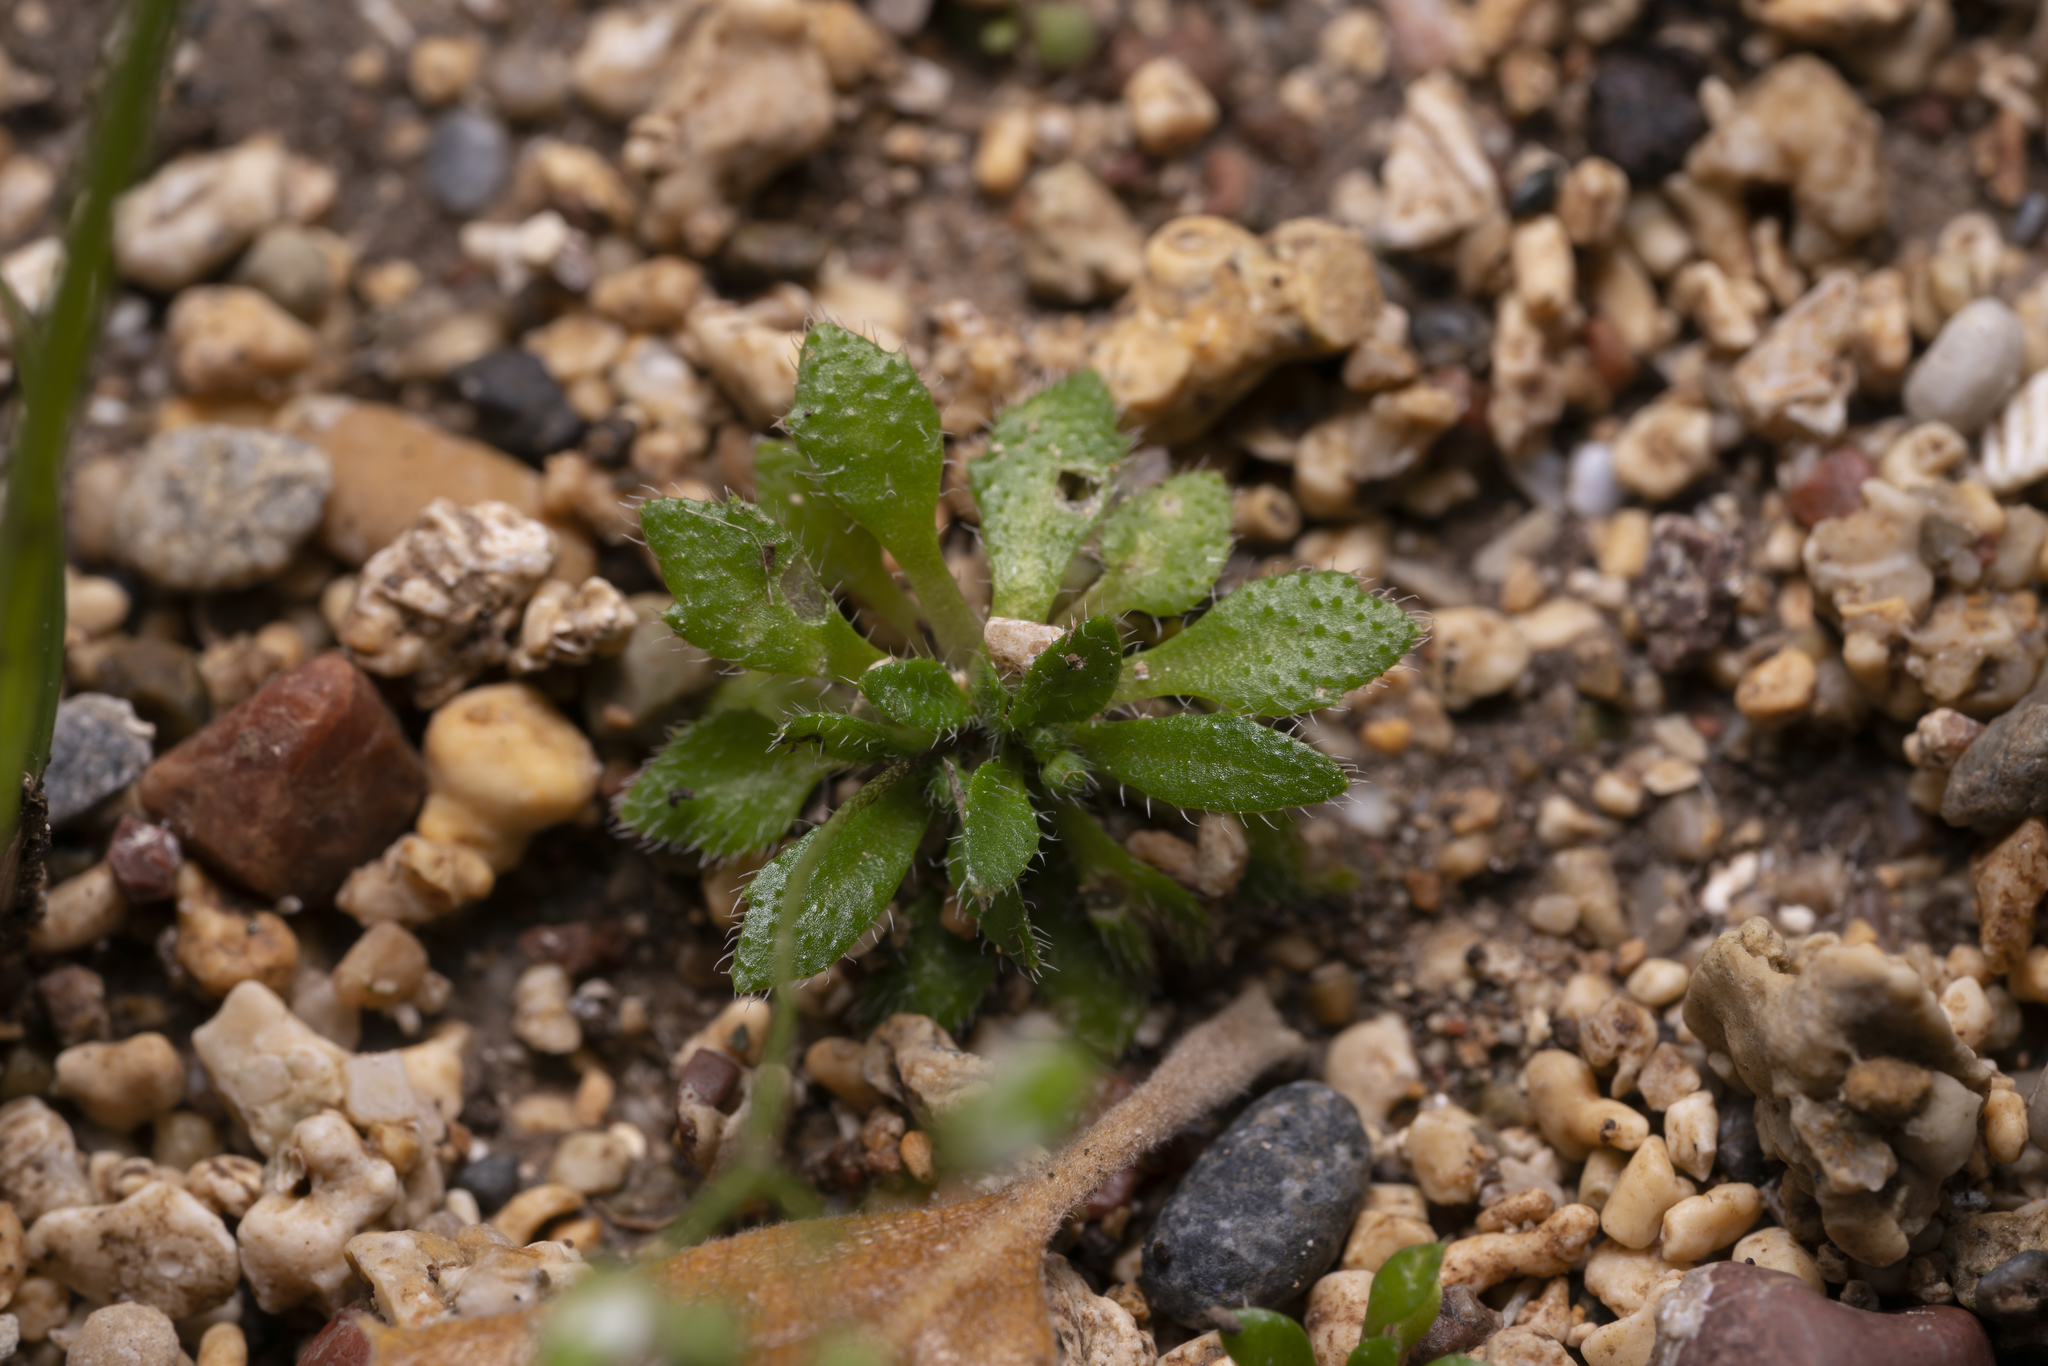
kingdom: Plantae
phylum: Tracheophyta
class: Magnoliopsida
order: Brassicales
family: Brassicaceae
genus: Draba
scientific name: Draba verna
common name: Spring draba
